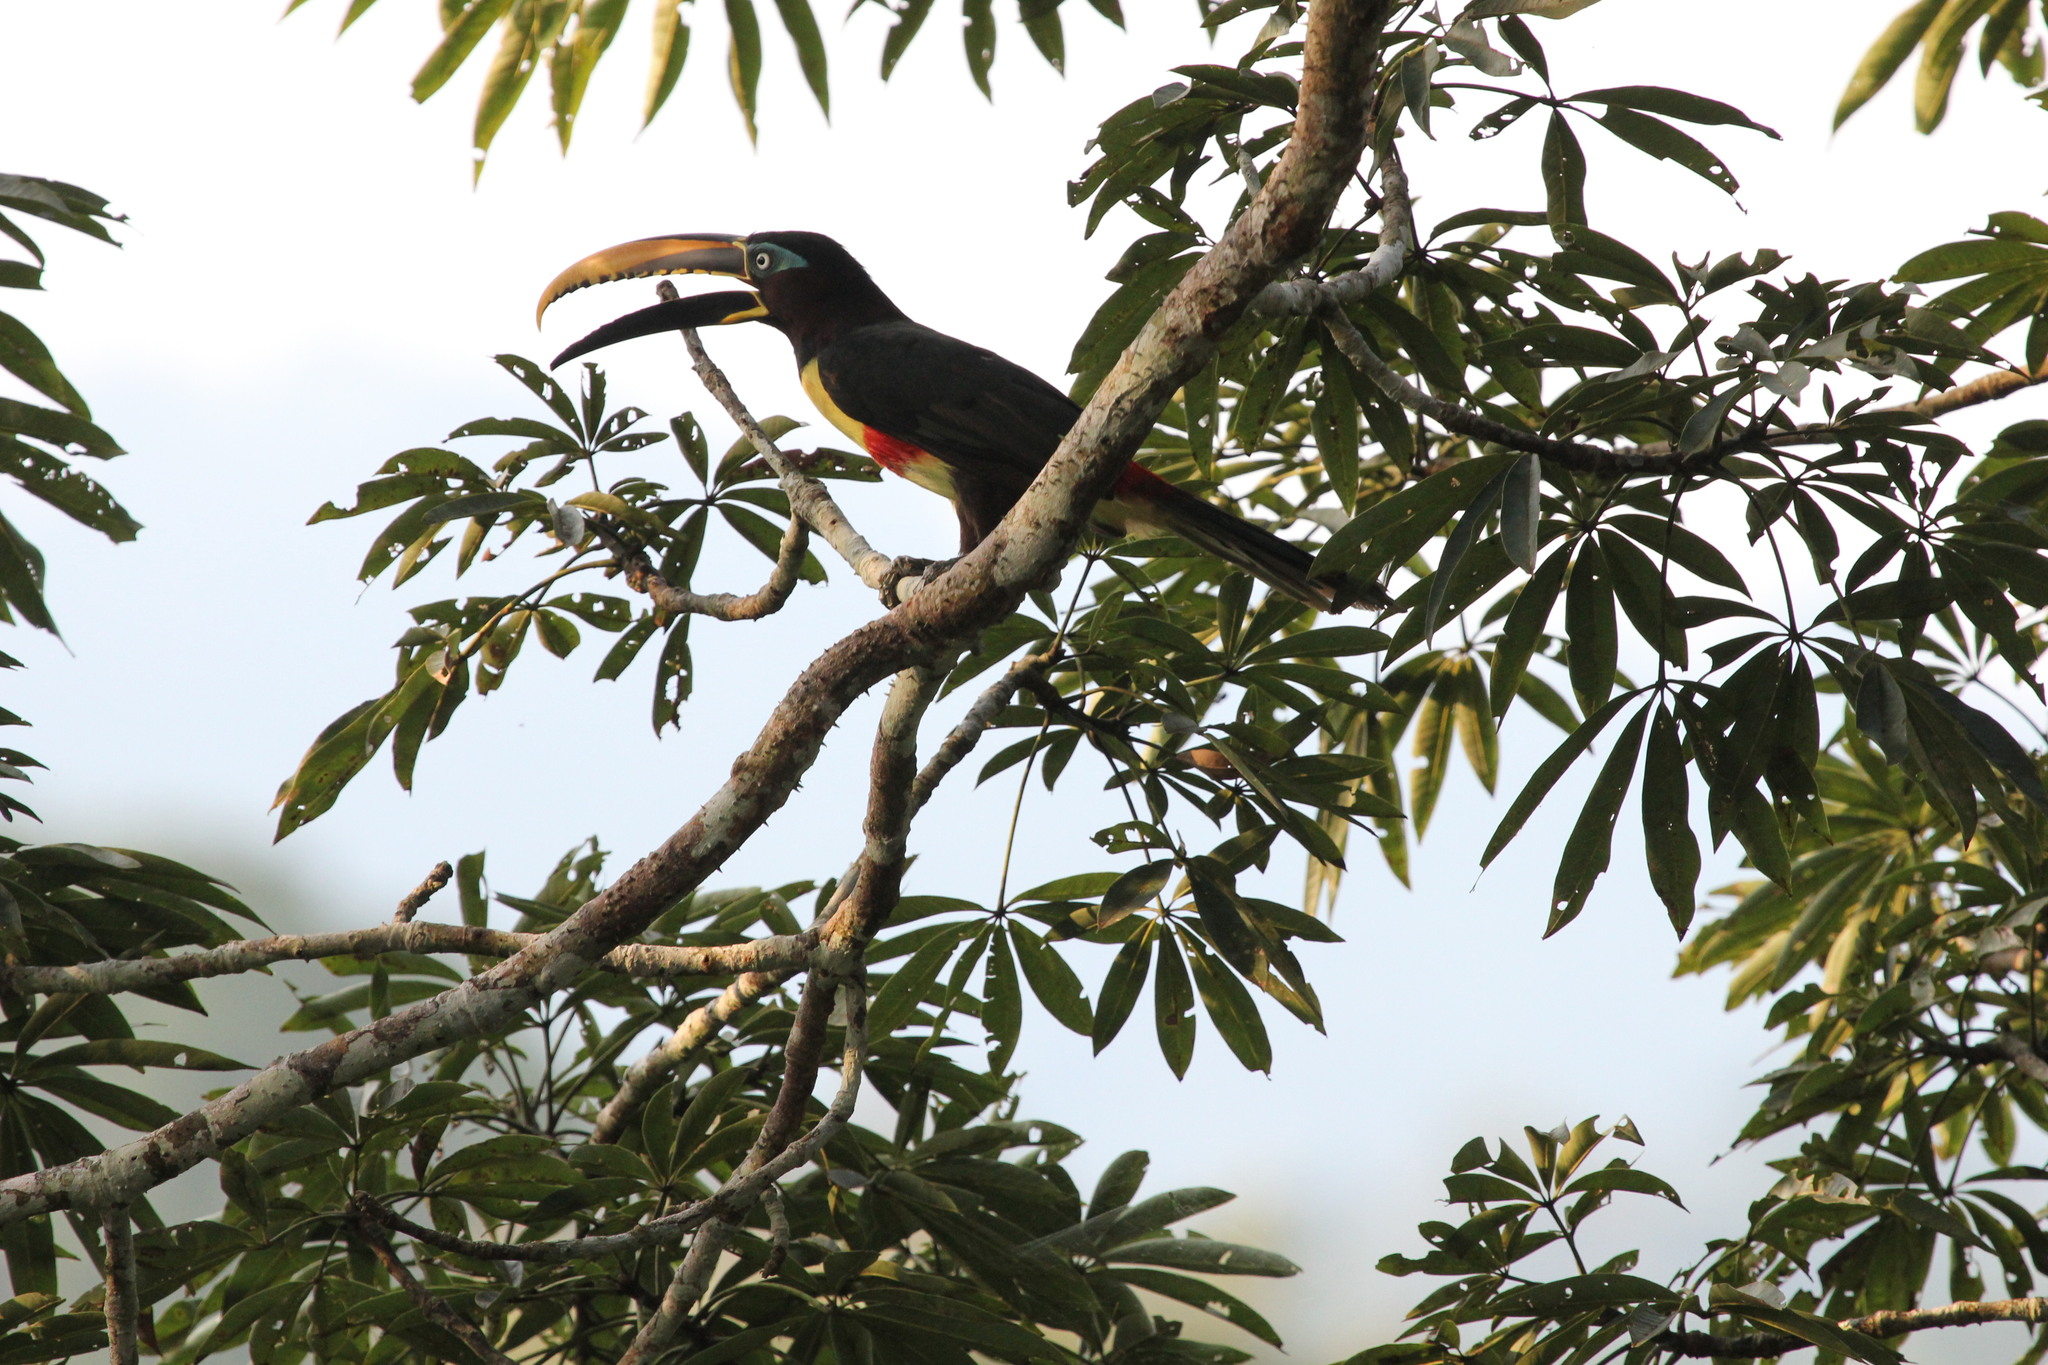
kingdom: Animalia
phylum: Chordata
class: Aves
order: Piciformes
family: Ramphastidae
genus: Pteroglossus
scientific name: Pteroglossus castanotis
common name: Chestnut-eared aracari
